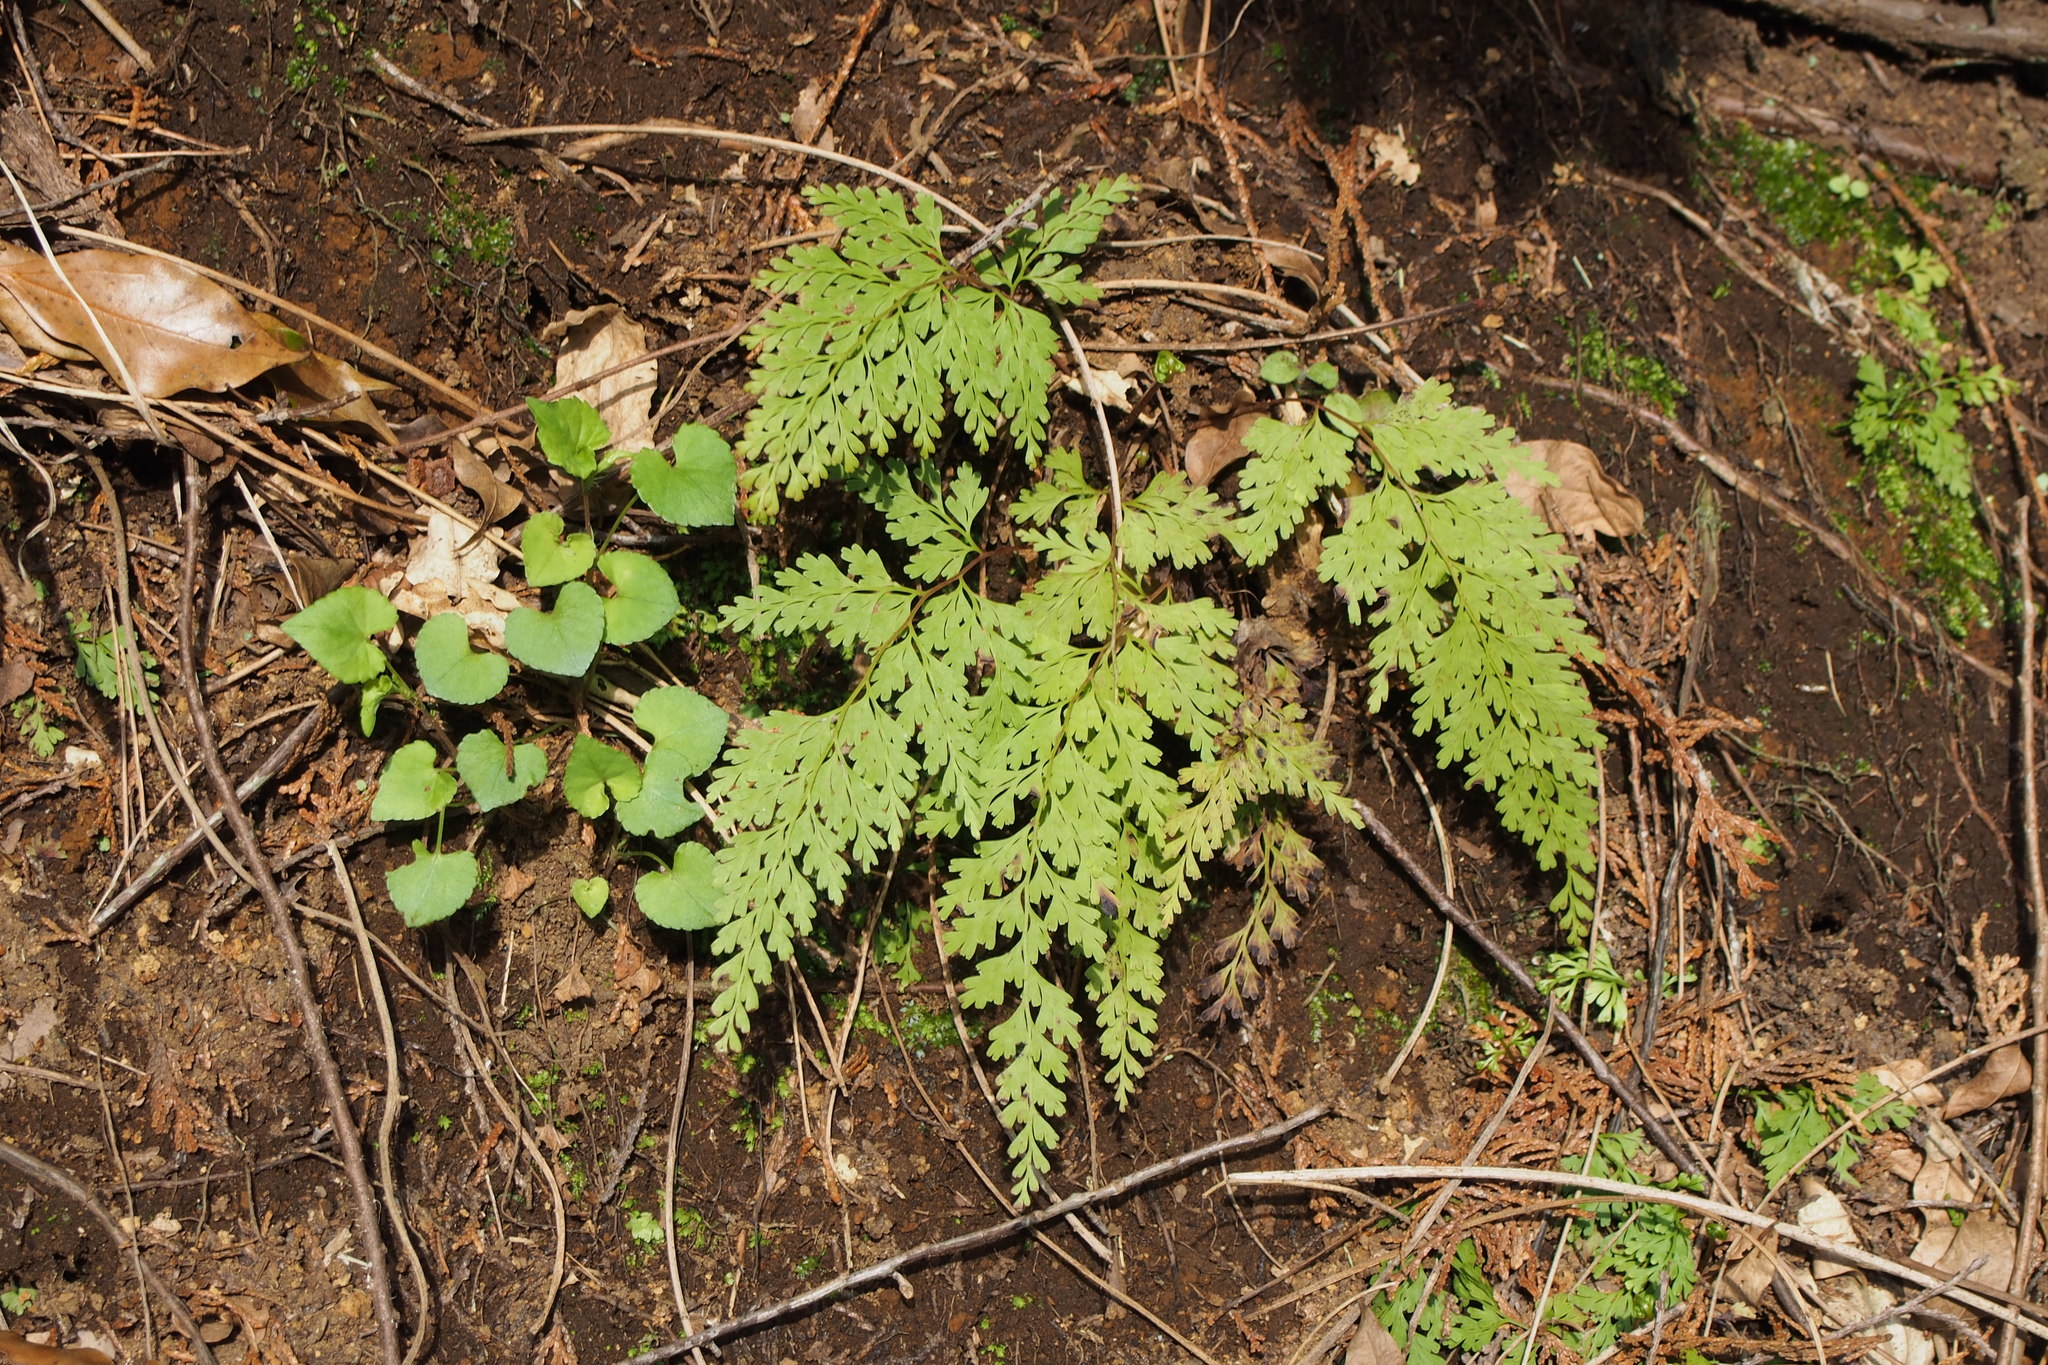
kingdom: Plantae
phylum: Tracheophyta
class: Polypodiopsida
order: Polypodiales
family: Lindsaeaceae
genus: Odontosoria
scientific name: Odontosoria chinensis
